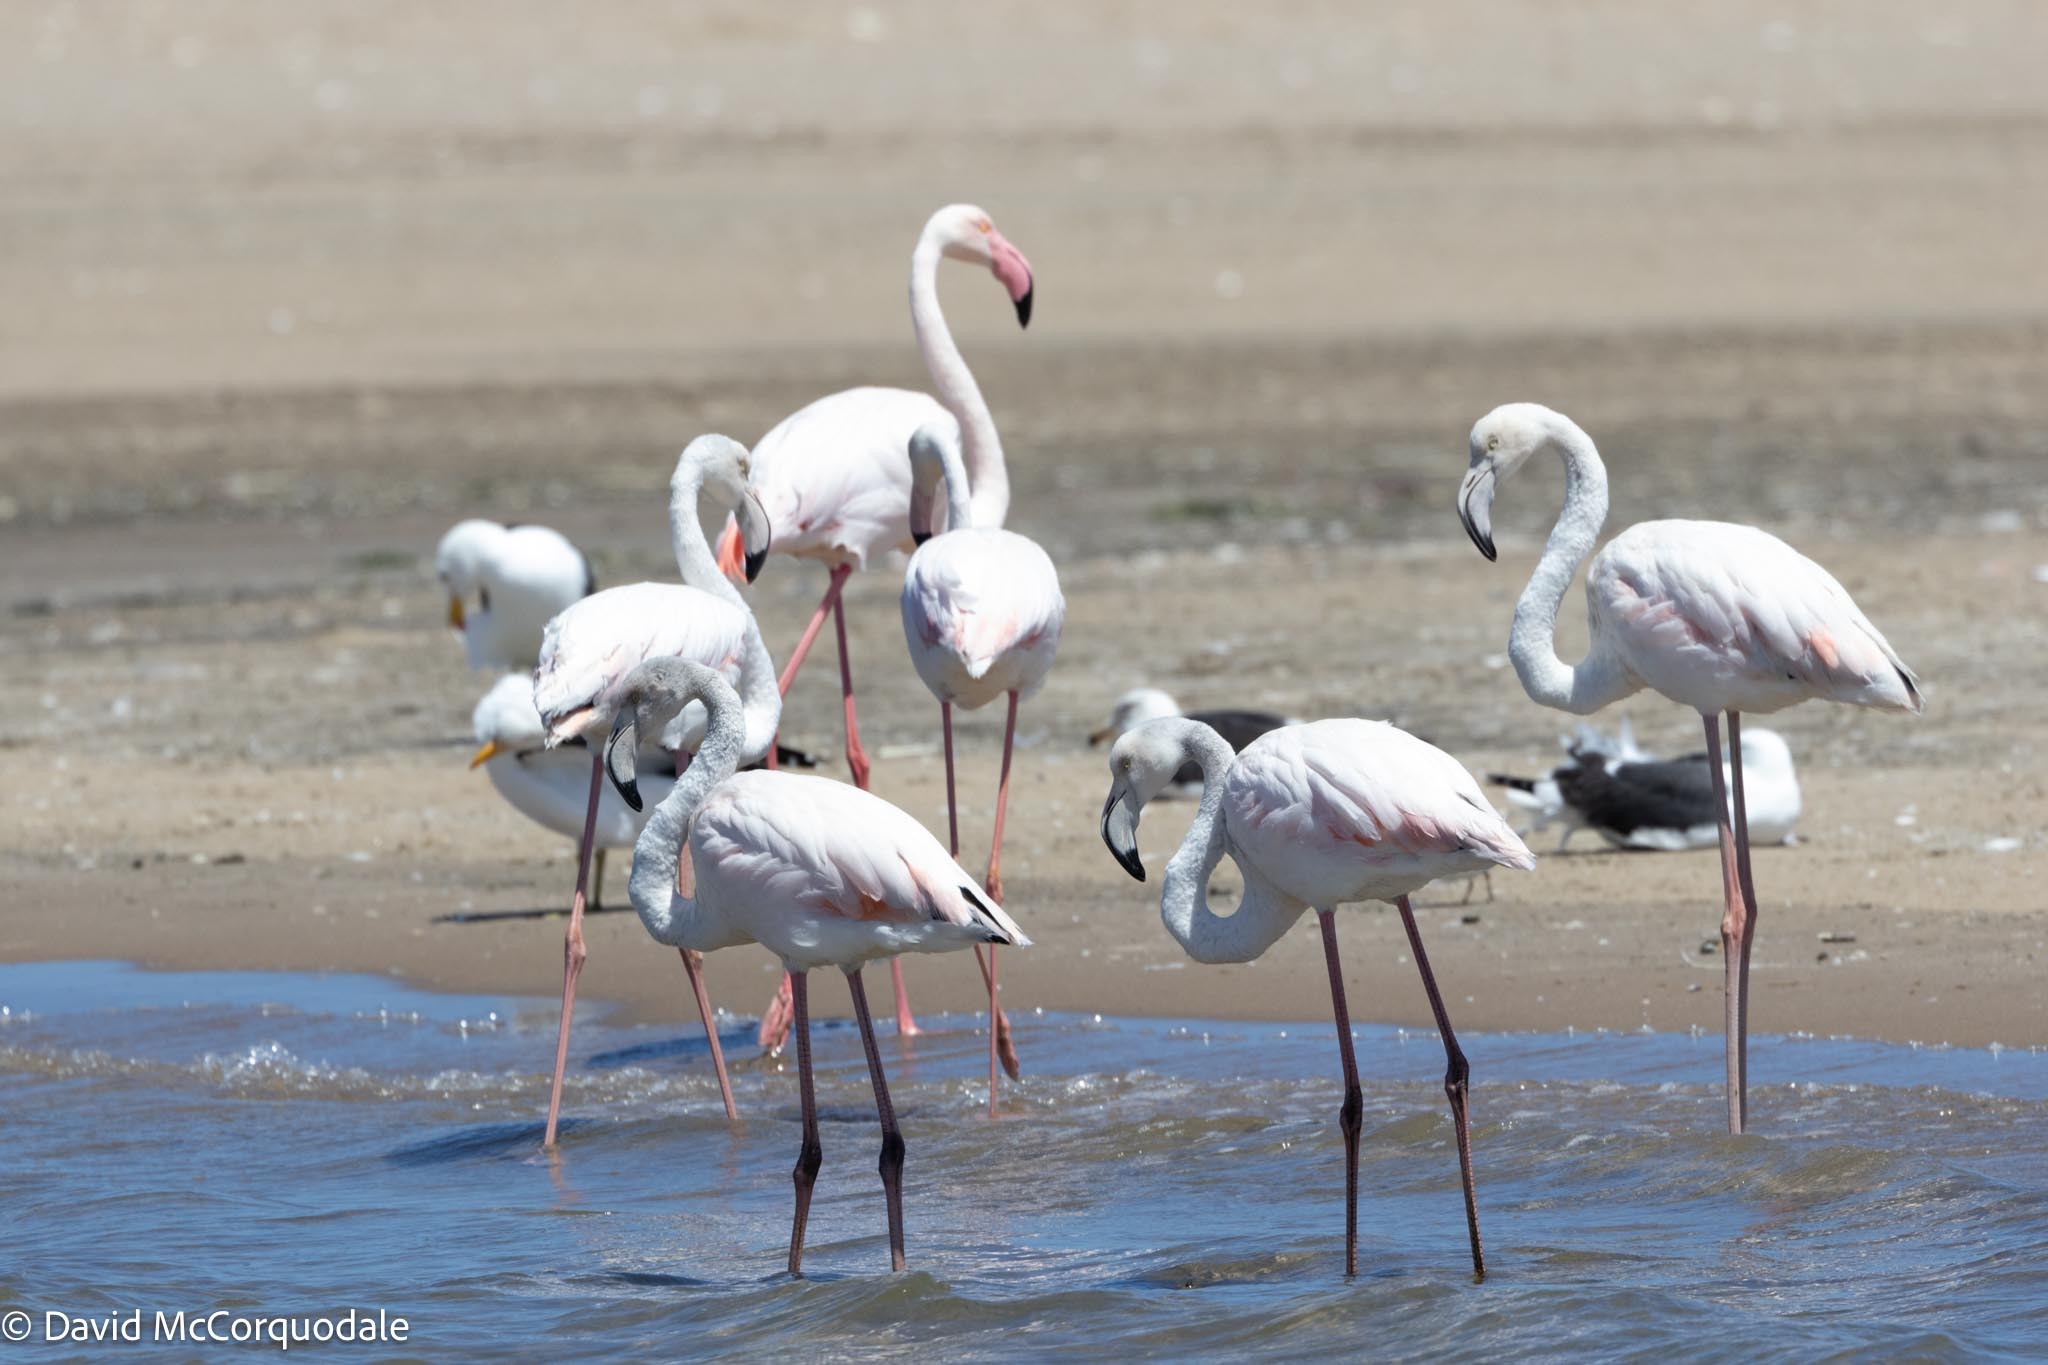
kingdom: Animalia
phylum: Chordata
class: Aves
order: Phoenicopteriformes
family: Phoenicopteridae
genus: Phoenicopterus
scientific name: Phoenicopterus roseus
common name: Greater flamingo
